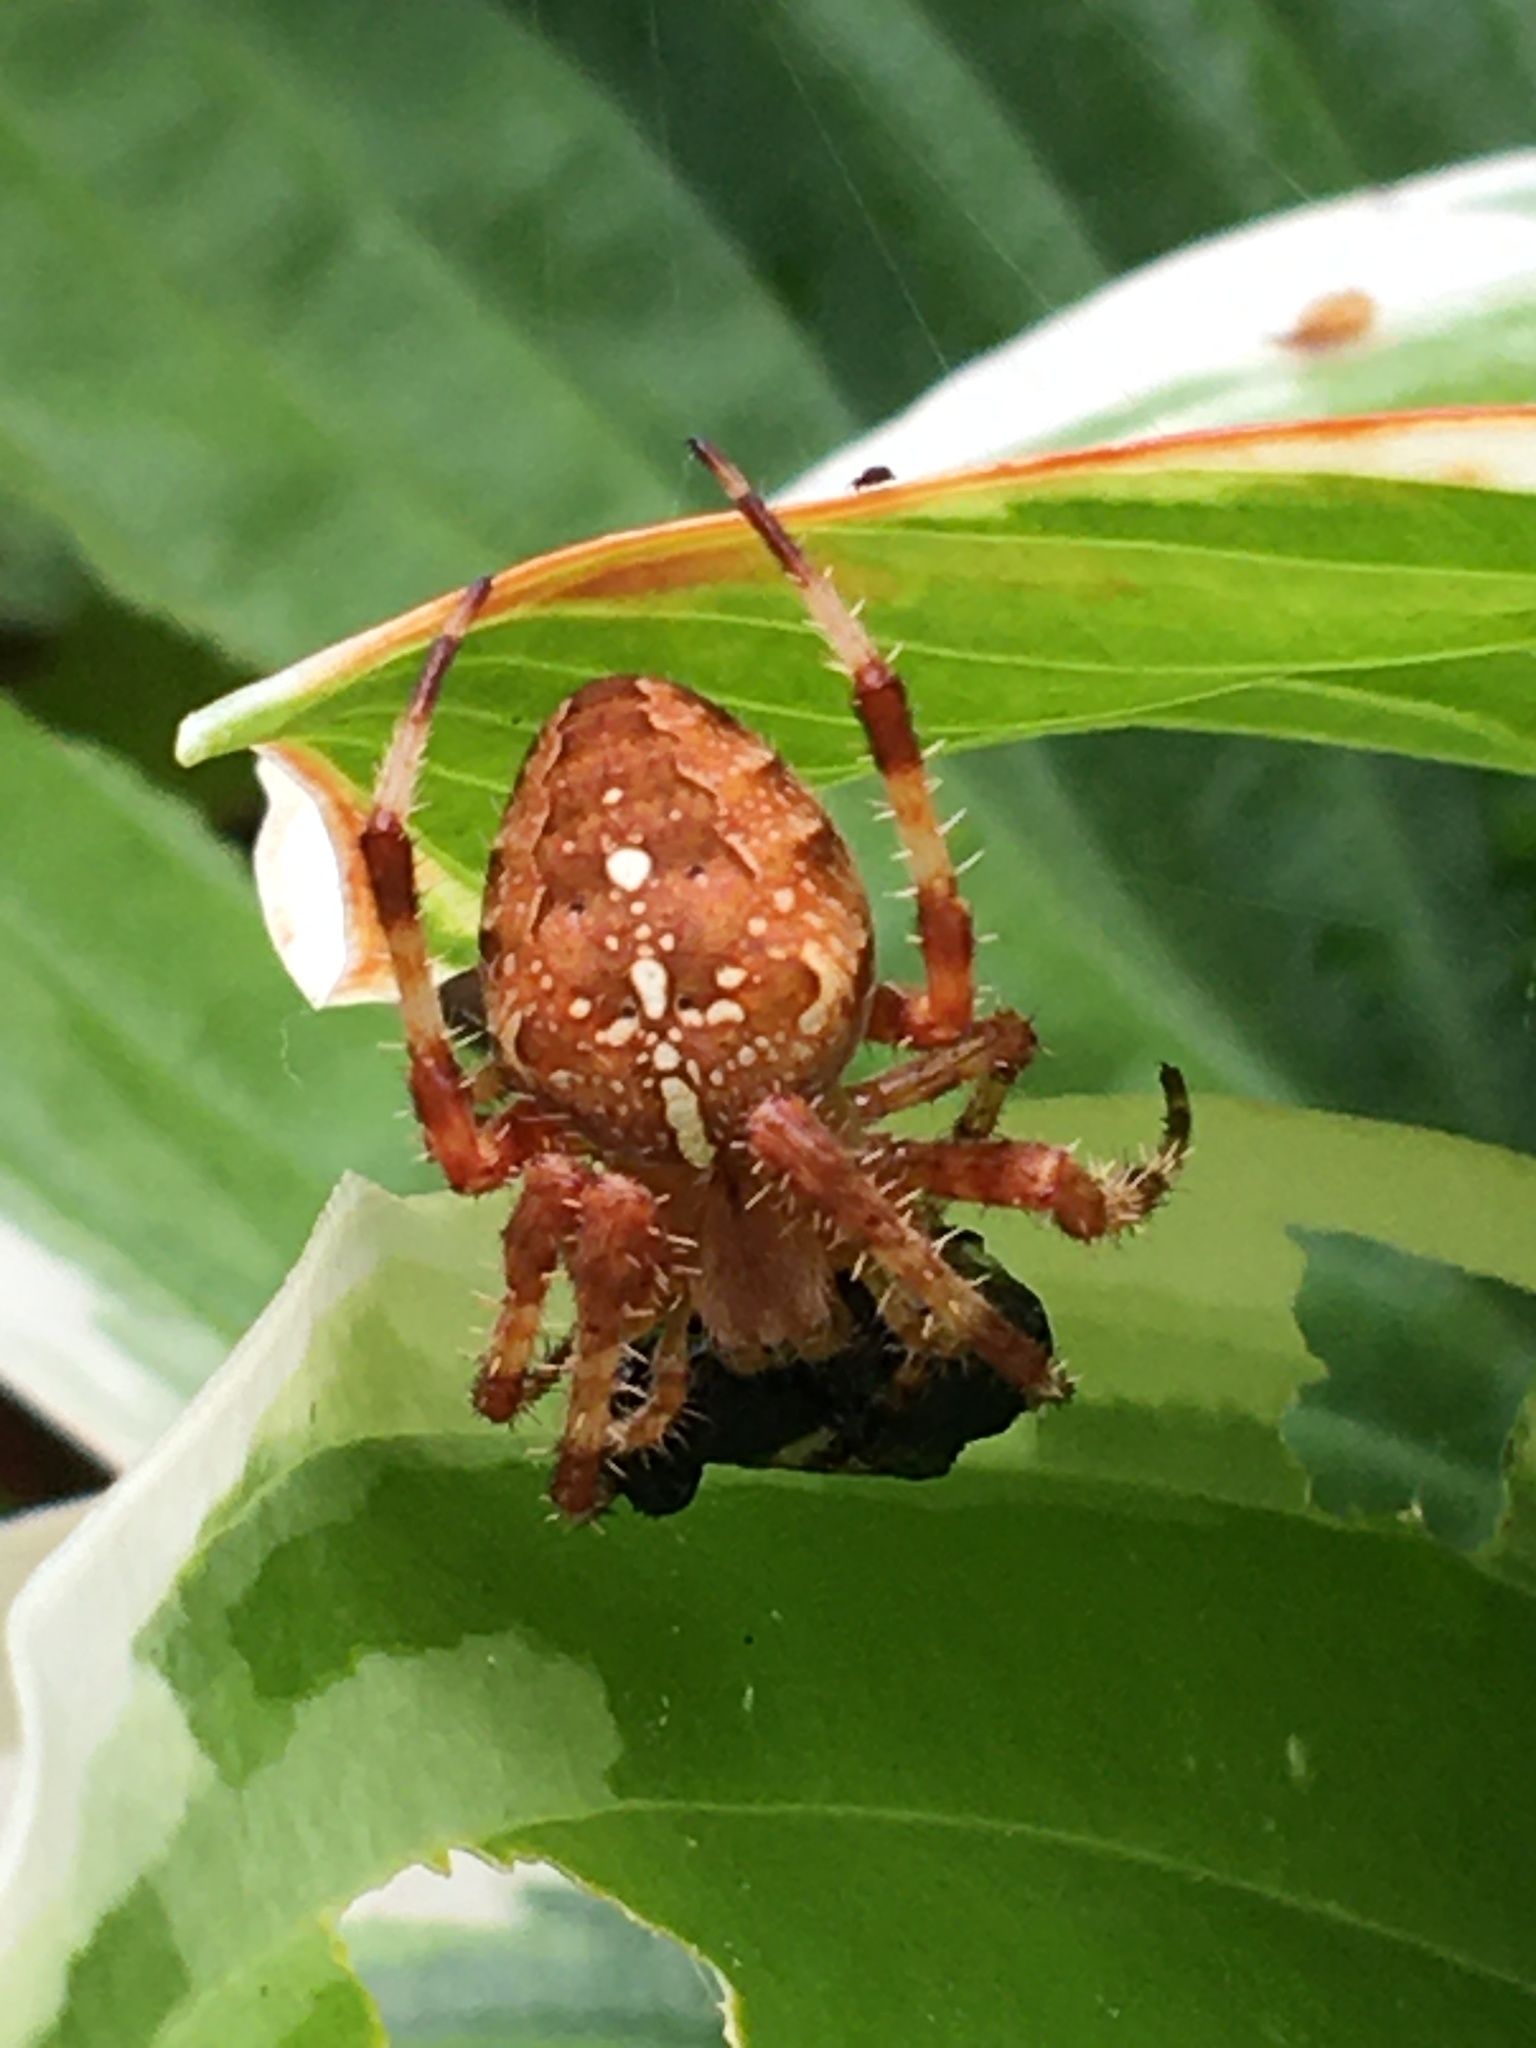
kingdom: Animalia
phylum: Arthropoda
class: Arachnida
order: Araneae
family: Araneidae
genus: Araneus
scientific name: Araneus diadematus
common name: Cross orbweaver
